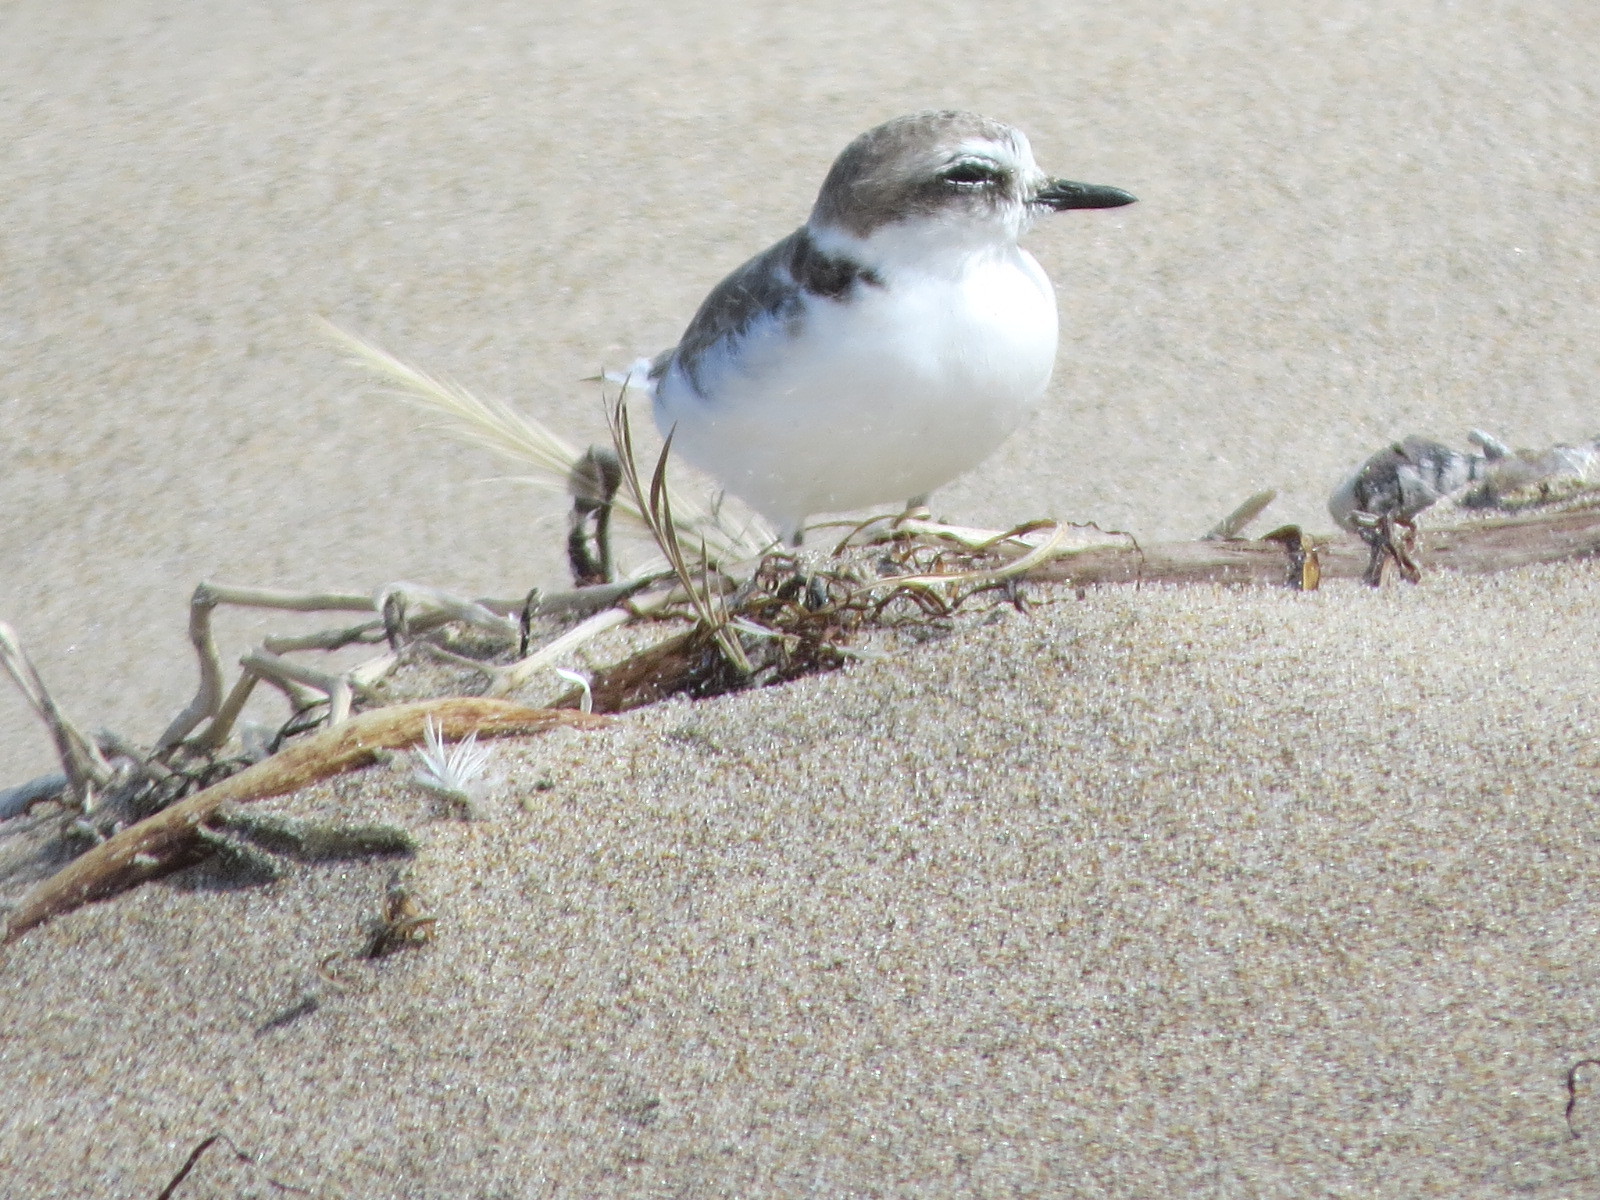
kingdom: Animalia
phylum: Chordata
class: Aves
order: Charadriiformes
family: Charadriidae
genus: Anarhynchus
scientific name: Anarhynchus
